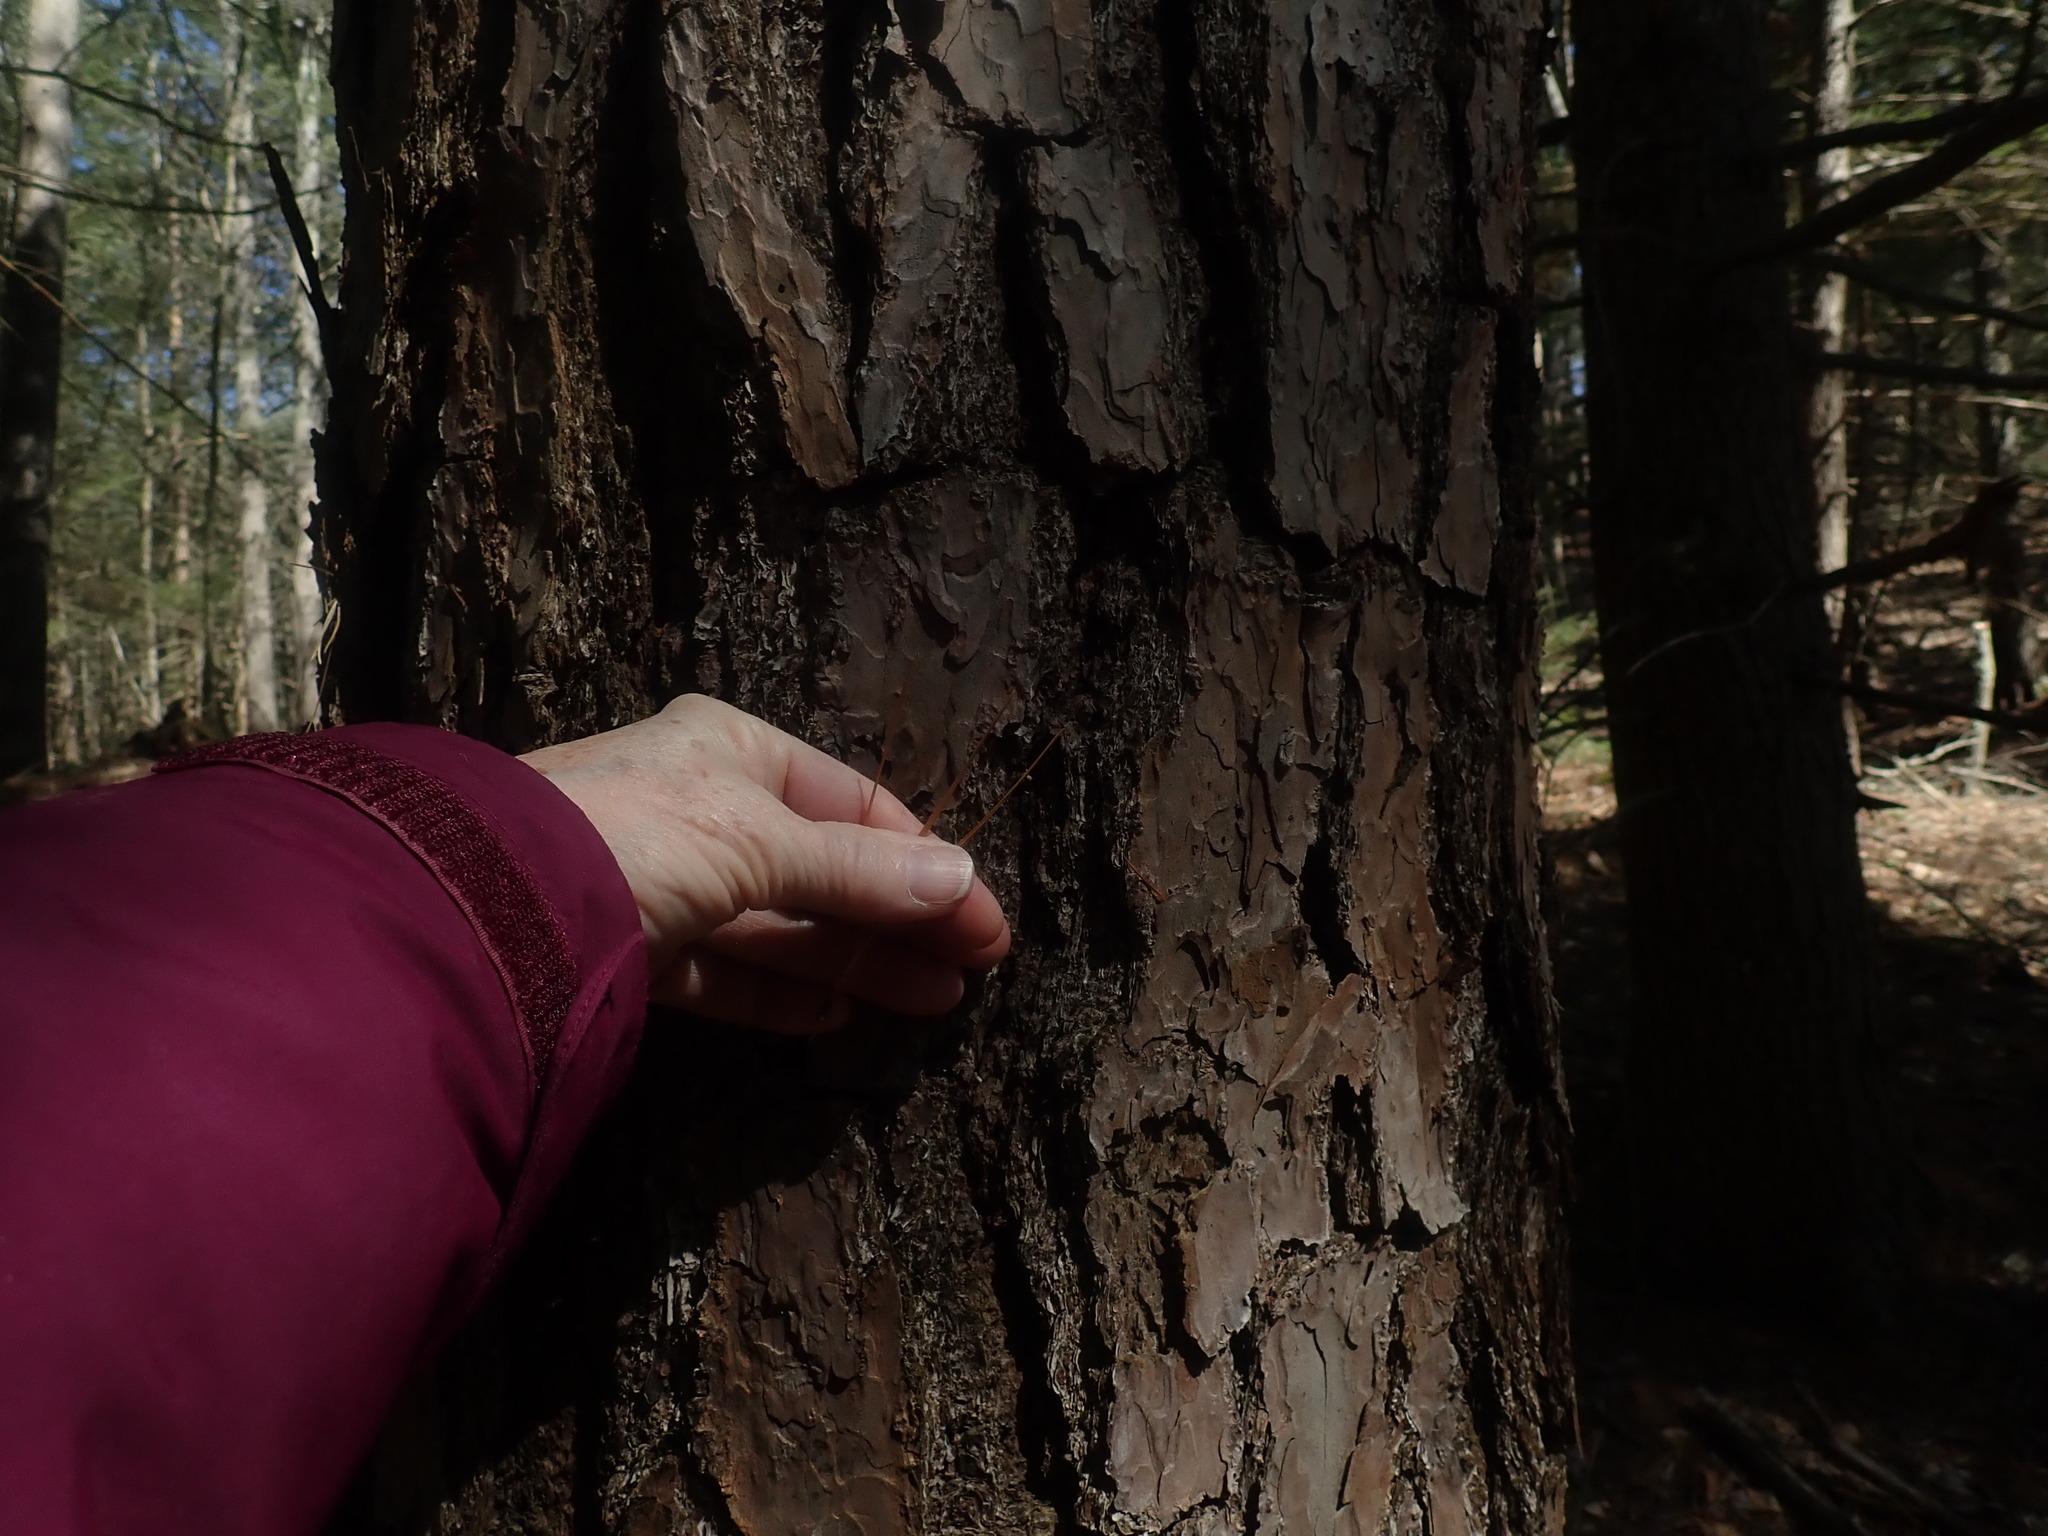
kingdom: Plantae
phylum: Tracheophyta
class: Pinopsida
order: Pinales
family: Pinaceae
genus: Pinus
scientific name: Pinus rigida
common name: Pitch pine
